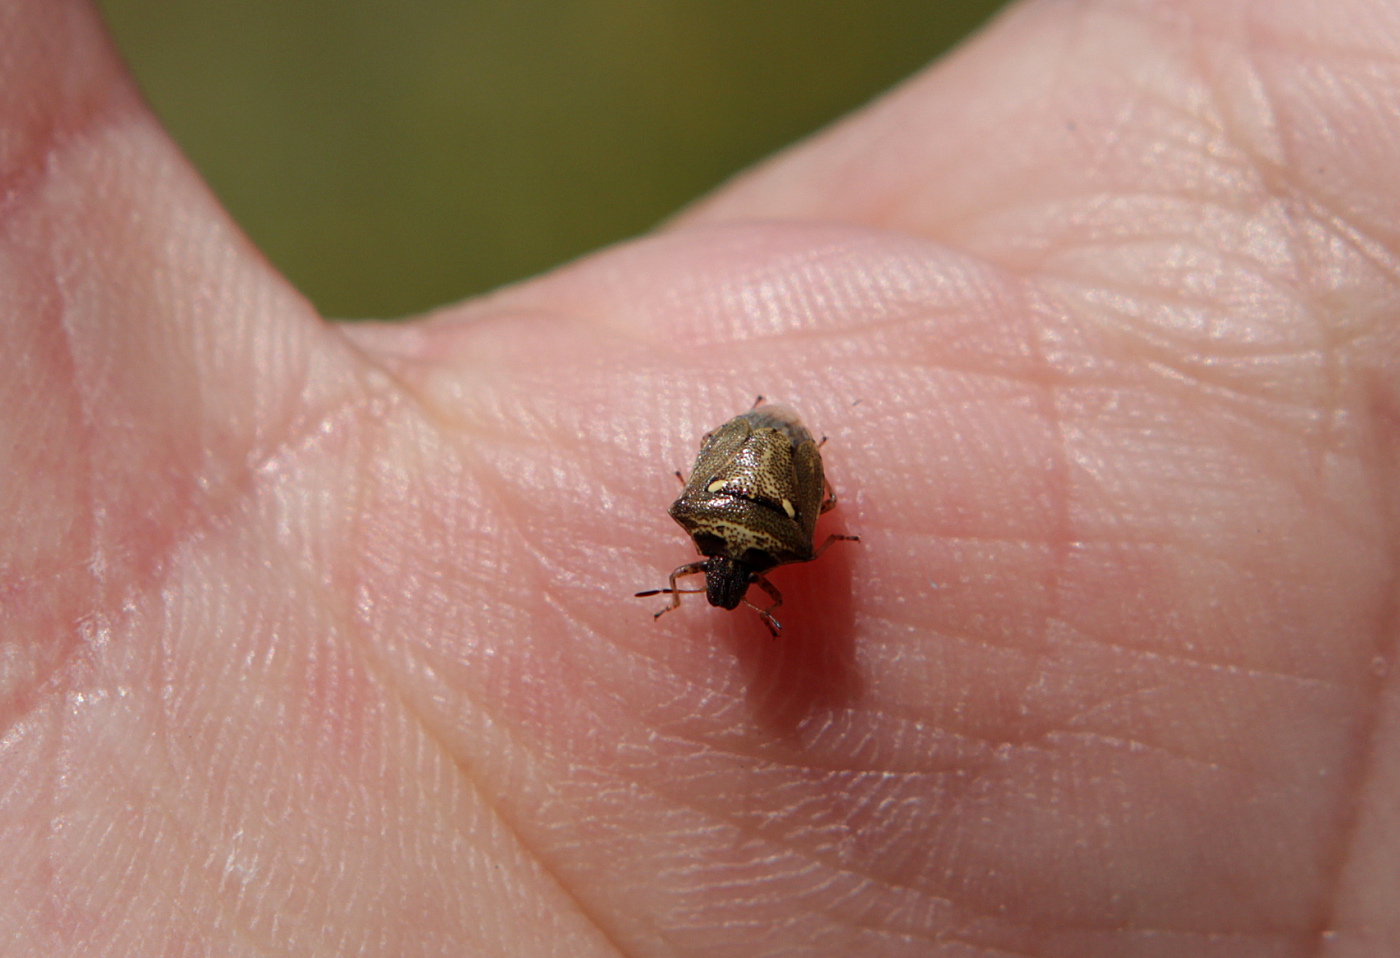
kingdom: Animalia
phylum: Arthropoda
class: Insecta
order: Hemiptera
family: Pentatomidae
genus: Eysarcoris
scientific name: Eysarcoris aeneus
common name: New forest shieldbug
